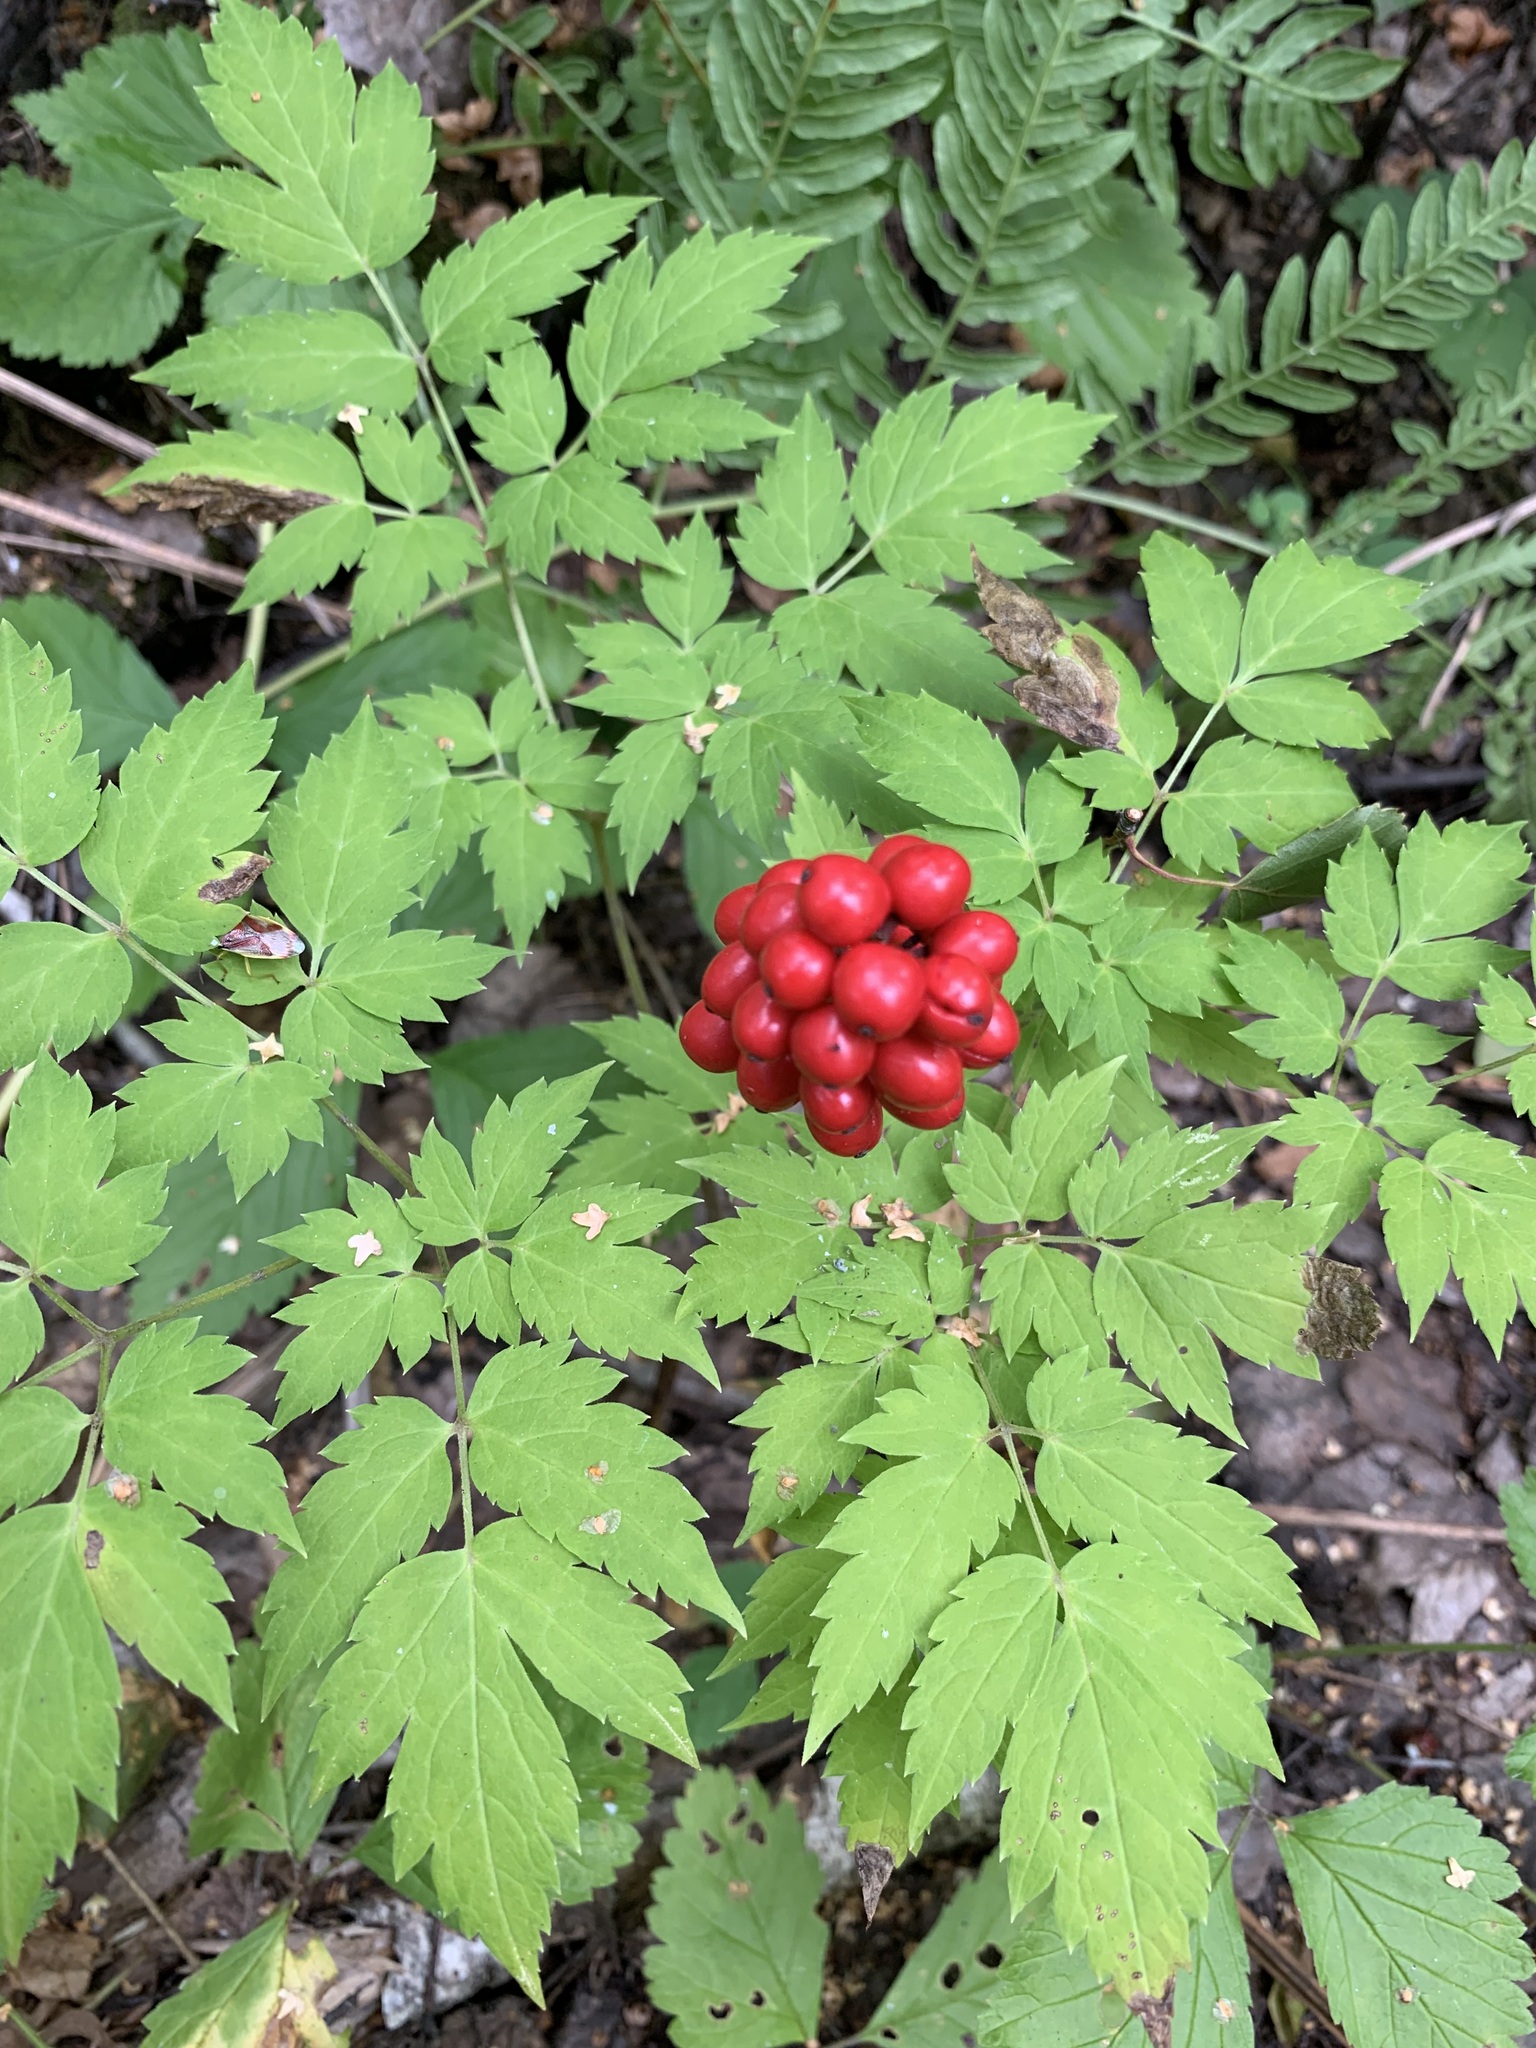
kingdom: Plantae
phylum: Tracheophyta
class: Magnoliopsida
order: Ranunculales
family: Ranunculaceae
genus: Actaea
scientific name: Actaea erythrocarpa
